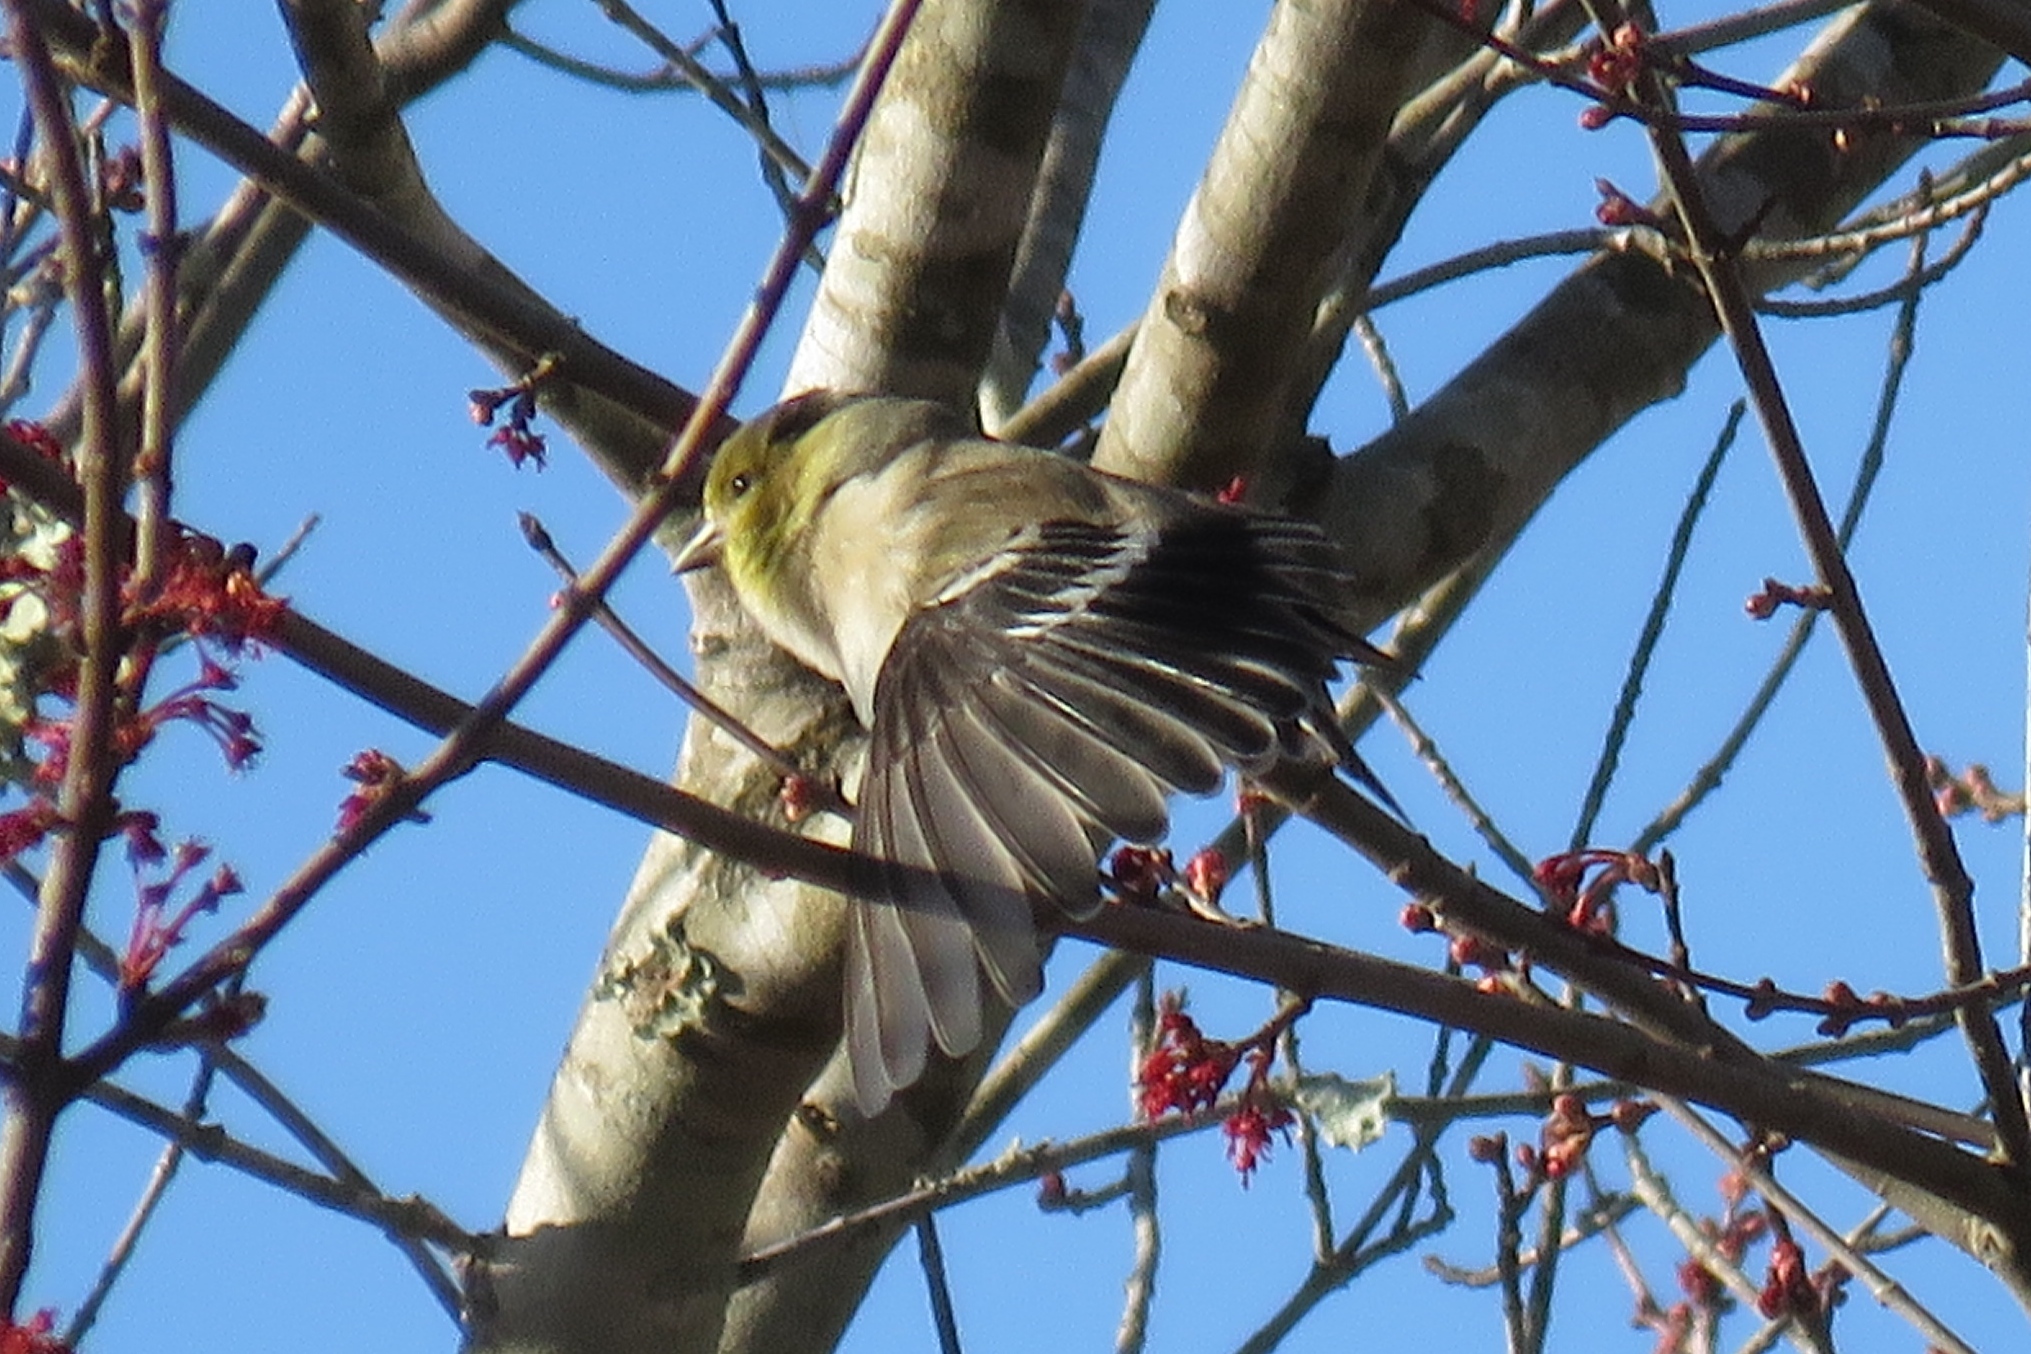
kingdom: Animalia
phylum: Chordata
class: Aves
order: Passeriformes
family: Fringillidae
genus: Spinus
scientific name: Spinus tristis
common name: American goldfinch
